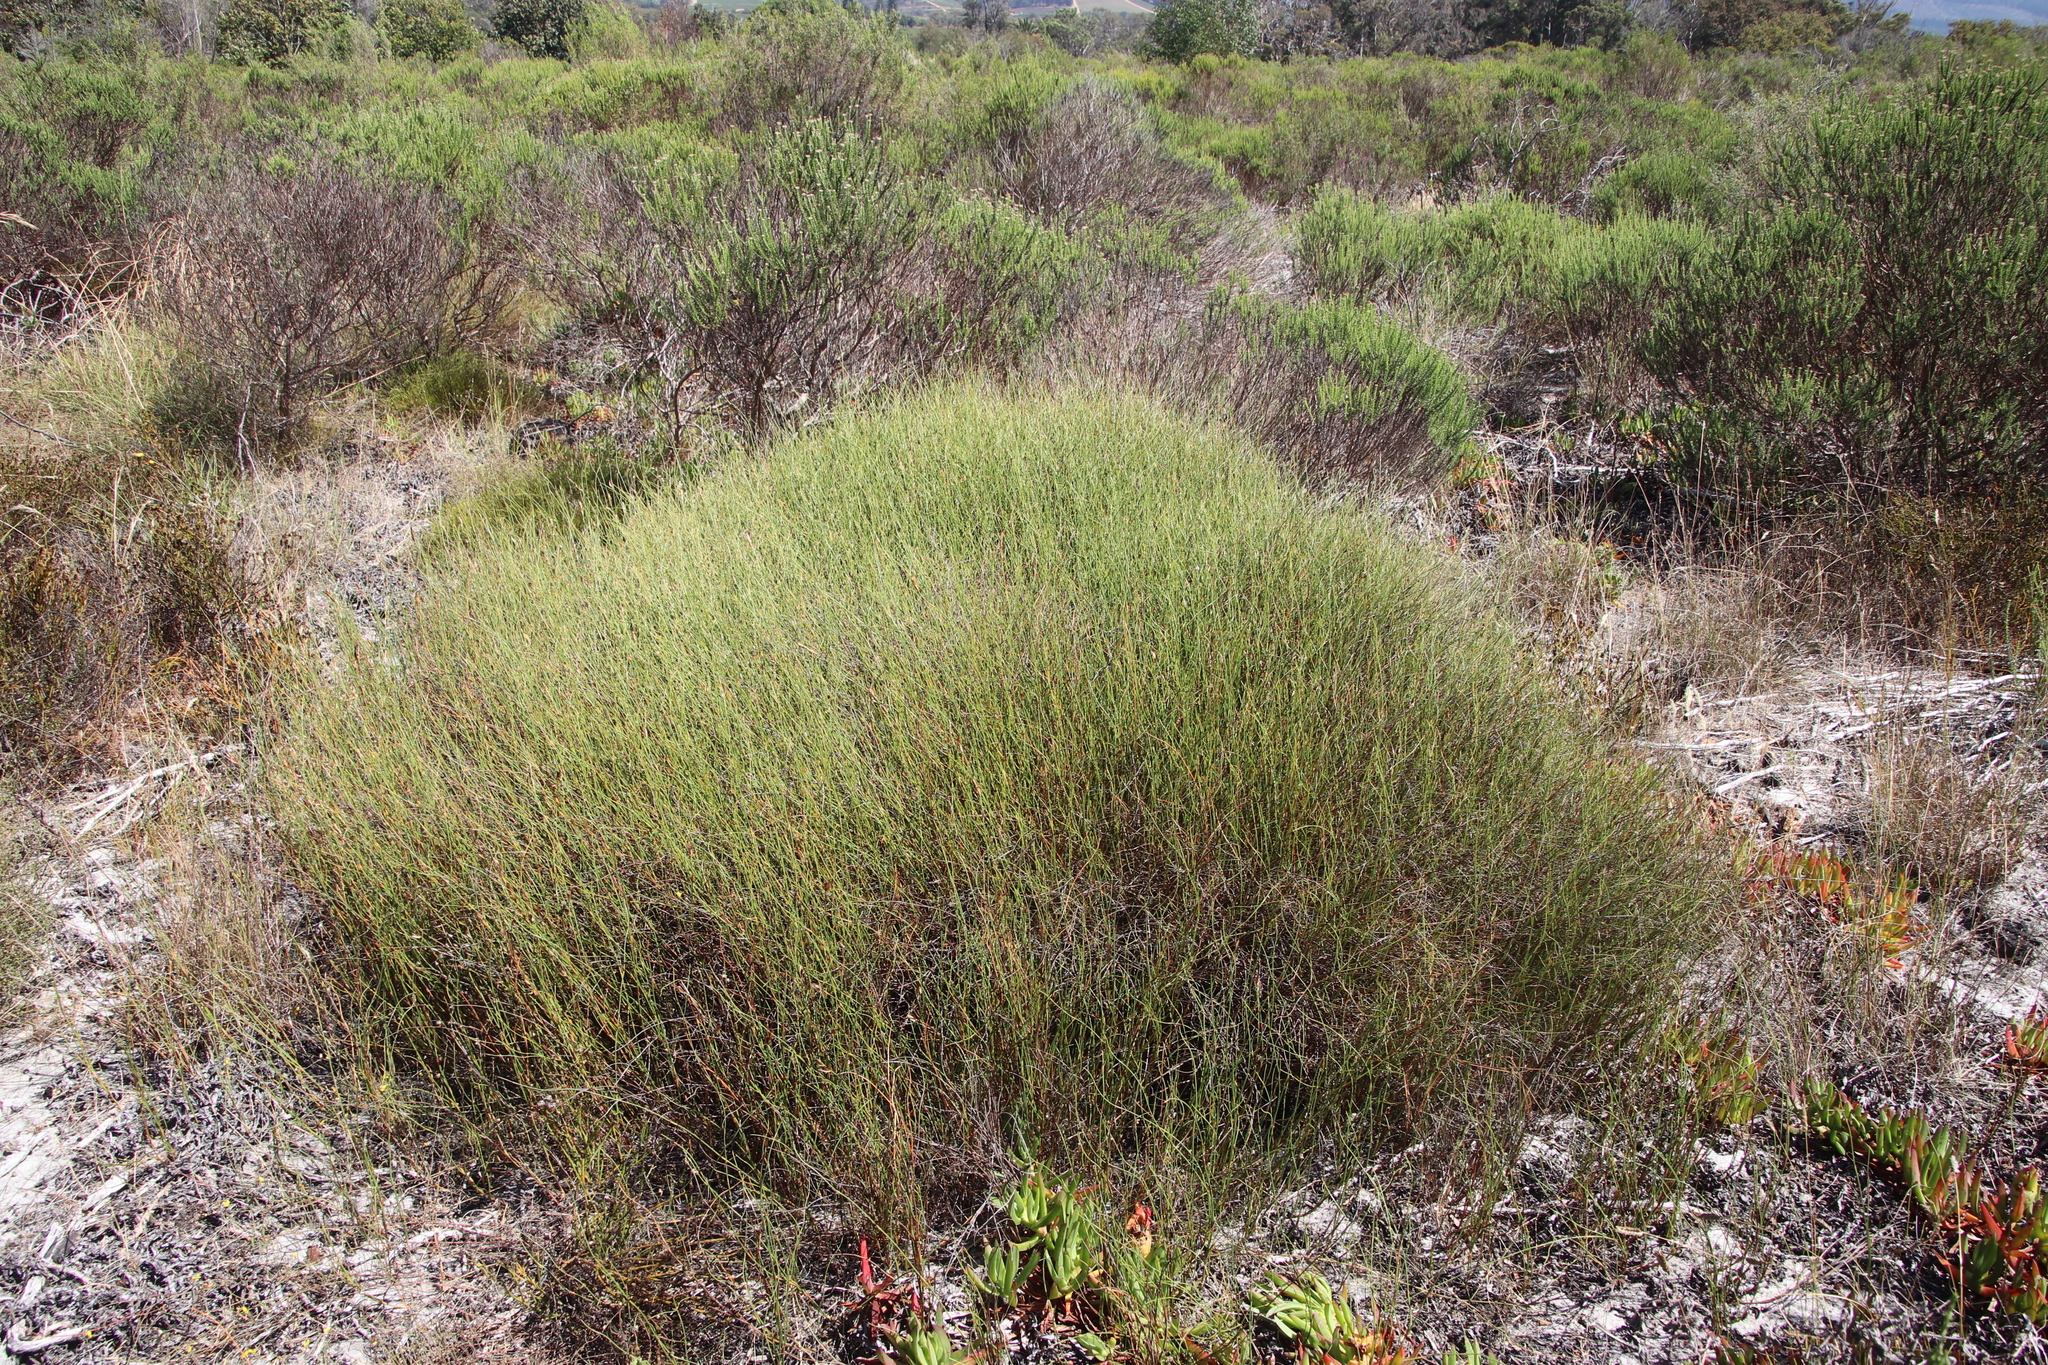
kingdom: Plantae
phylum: Tracheophyta
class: Liliopsida
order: Poales
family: Restionaceae
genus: Willdenowia
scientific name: Willdenowia sulcata
